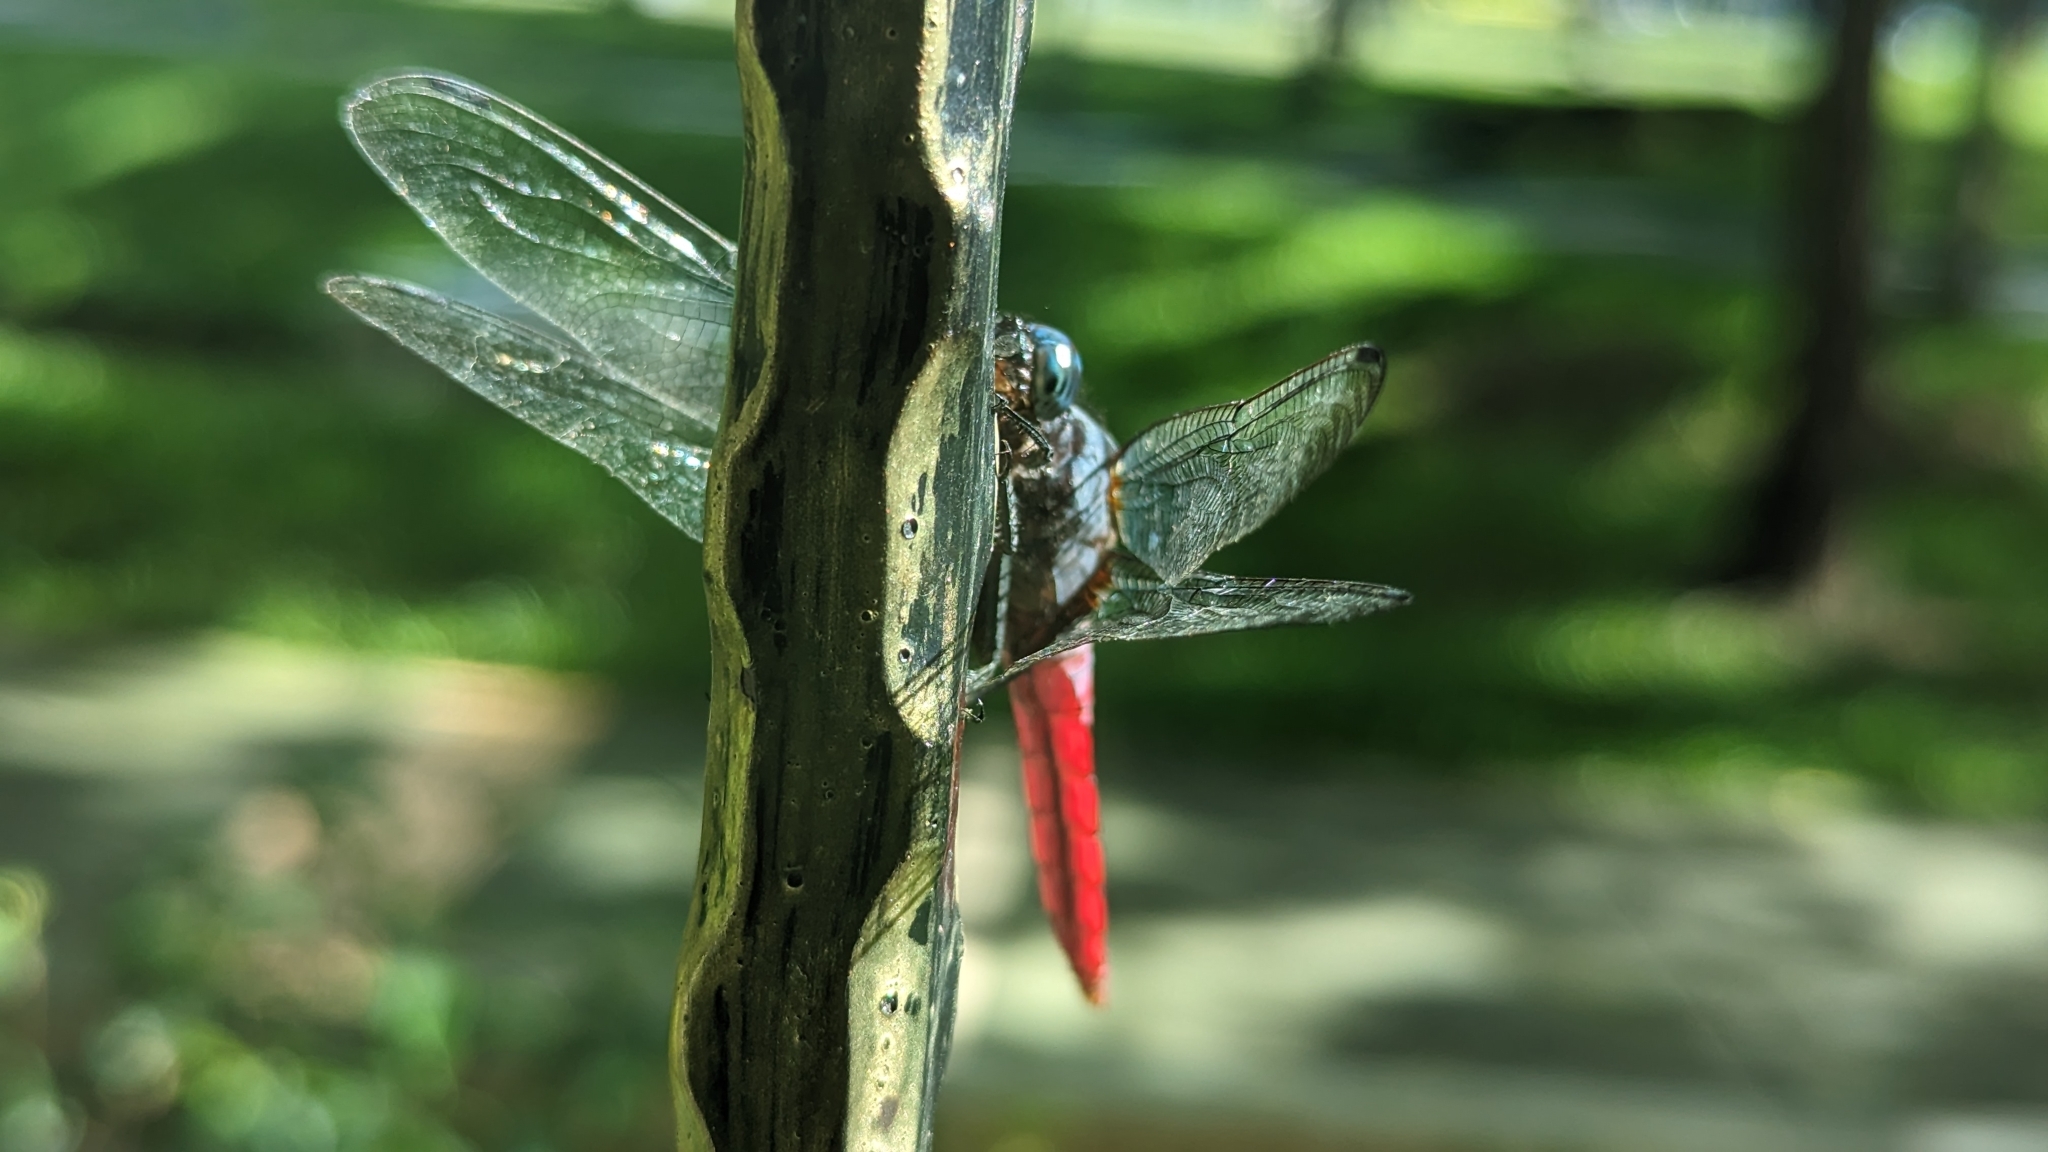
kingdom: Animalia
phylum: Arthropoda
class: Insecta
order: Odonata
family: Libellulidae
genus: Orthetrum
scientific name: Orthetrum pruinosum
